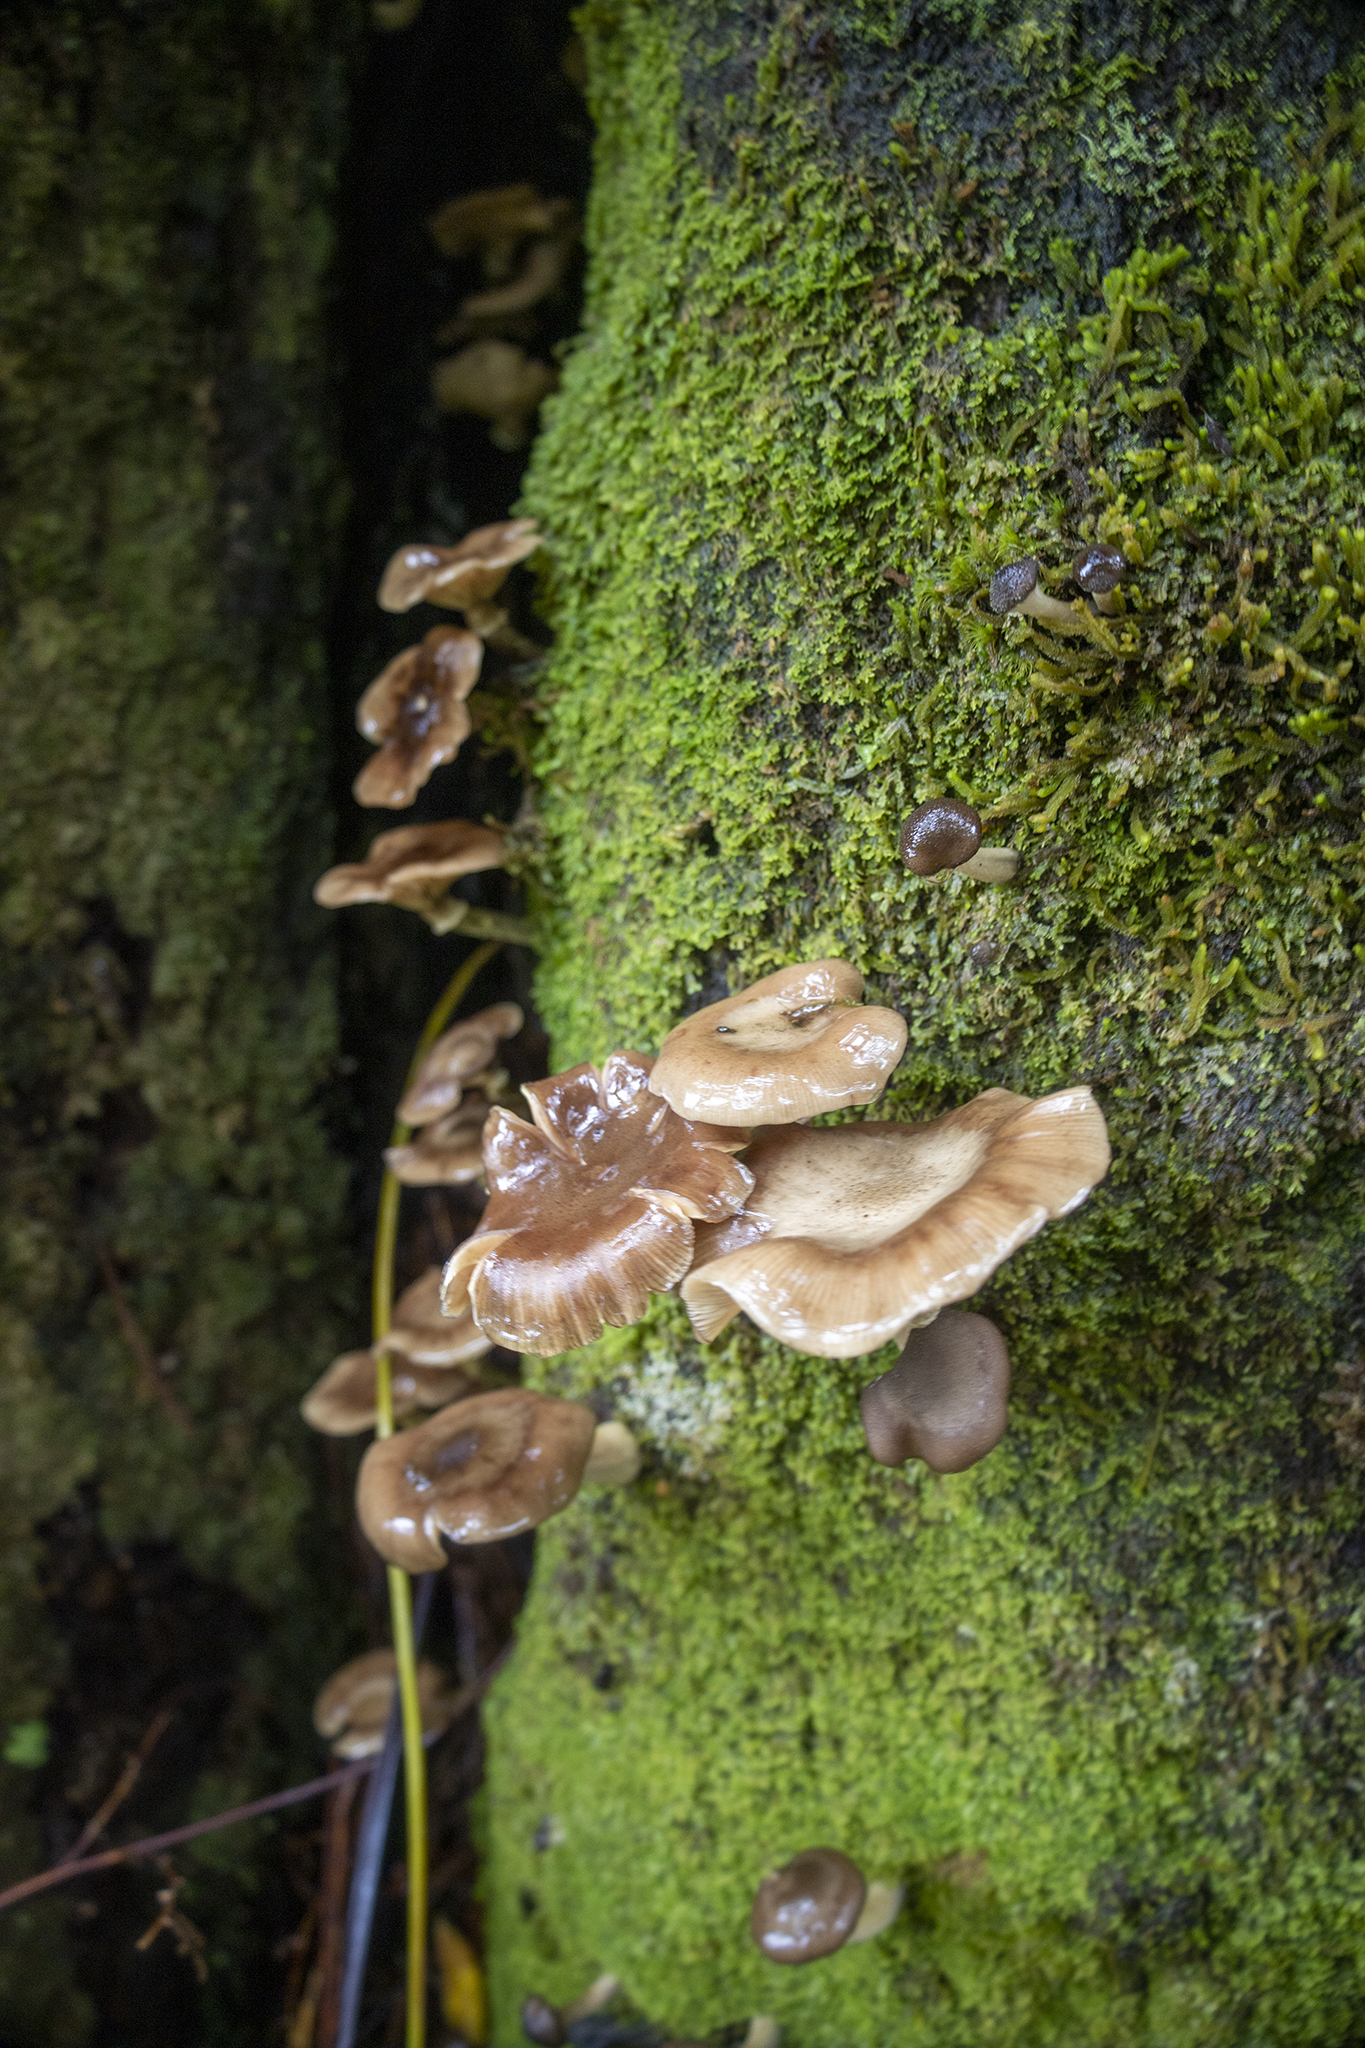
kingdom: Fungi
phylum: Basidiomycota
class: Agaricomycetes
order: Agaricales
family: Physalacriaceae
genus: Armillaria
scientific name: Armillaria novae-zelandiae
